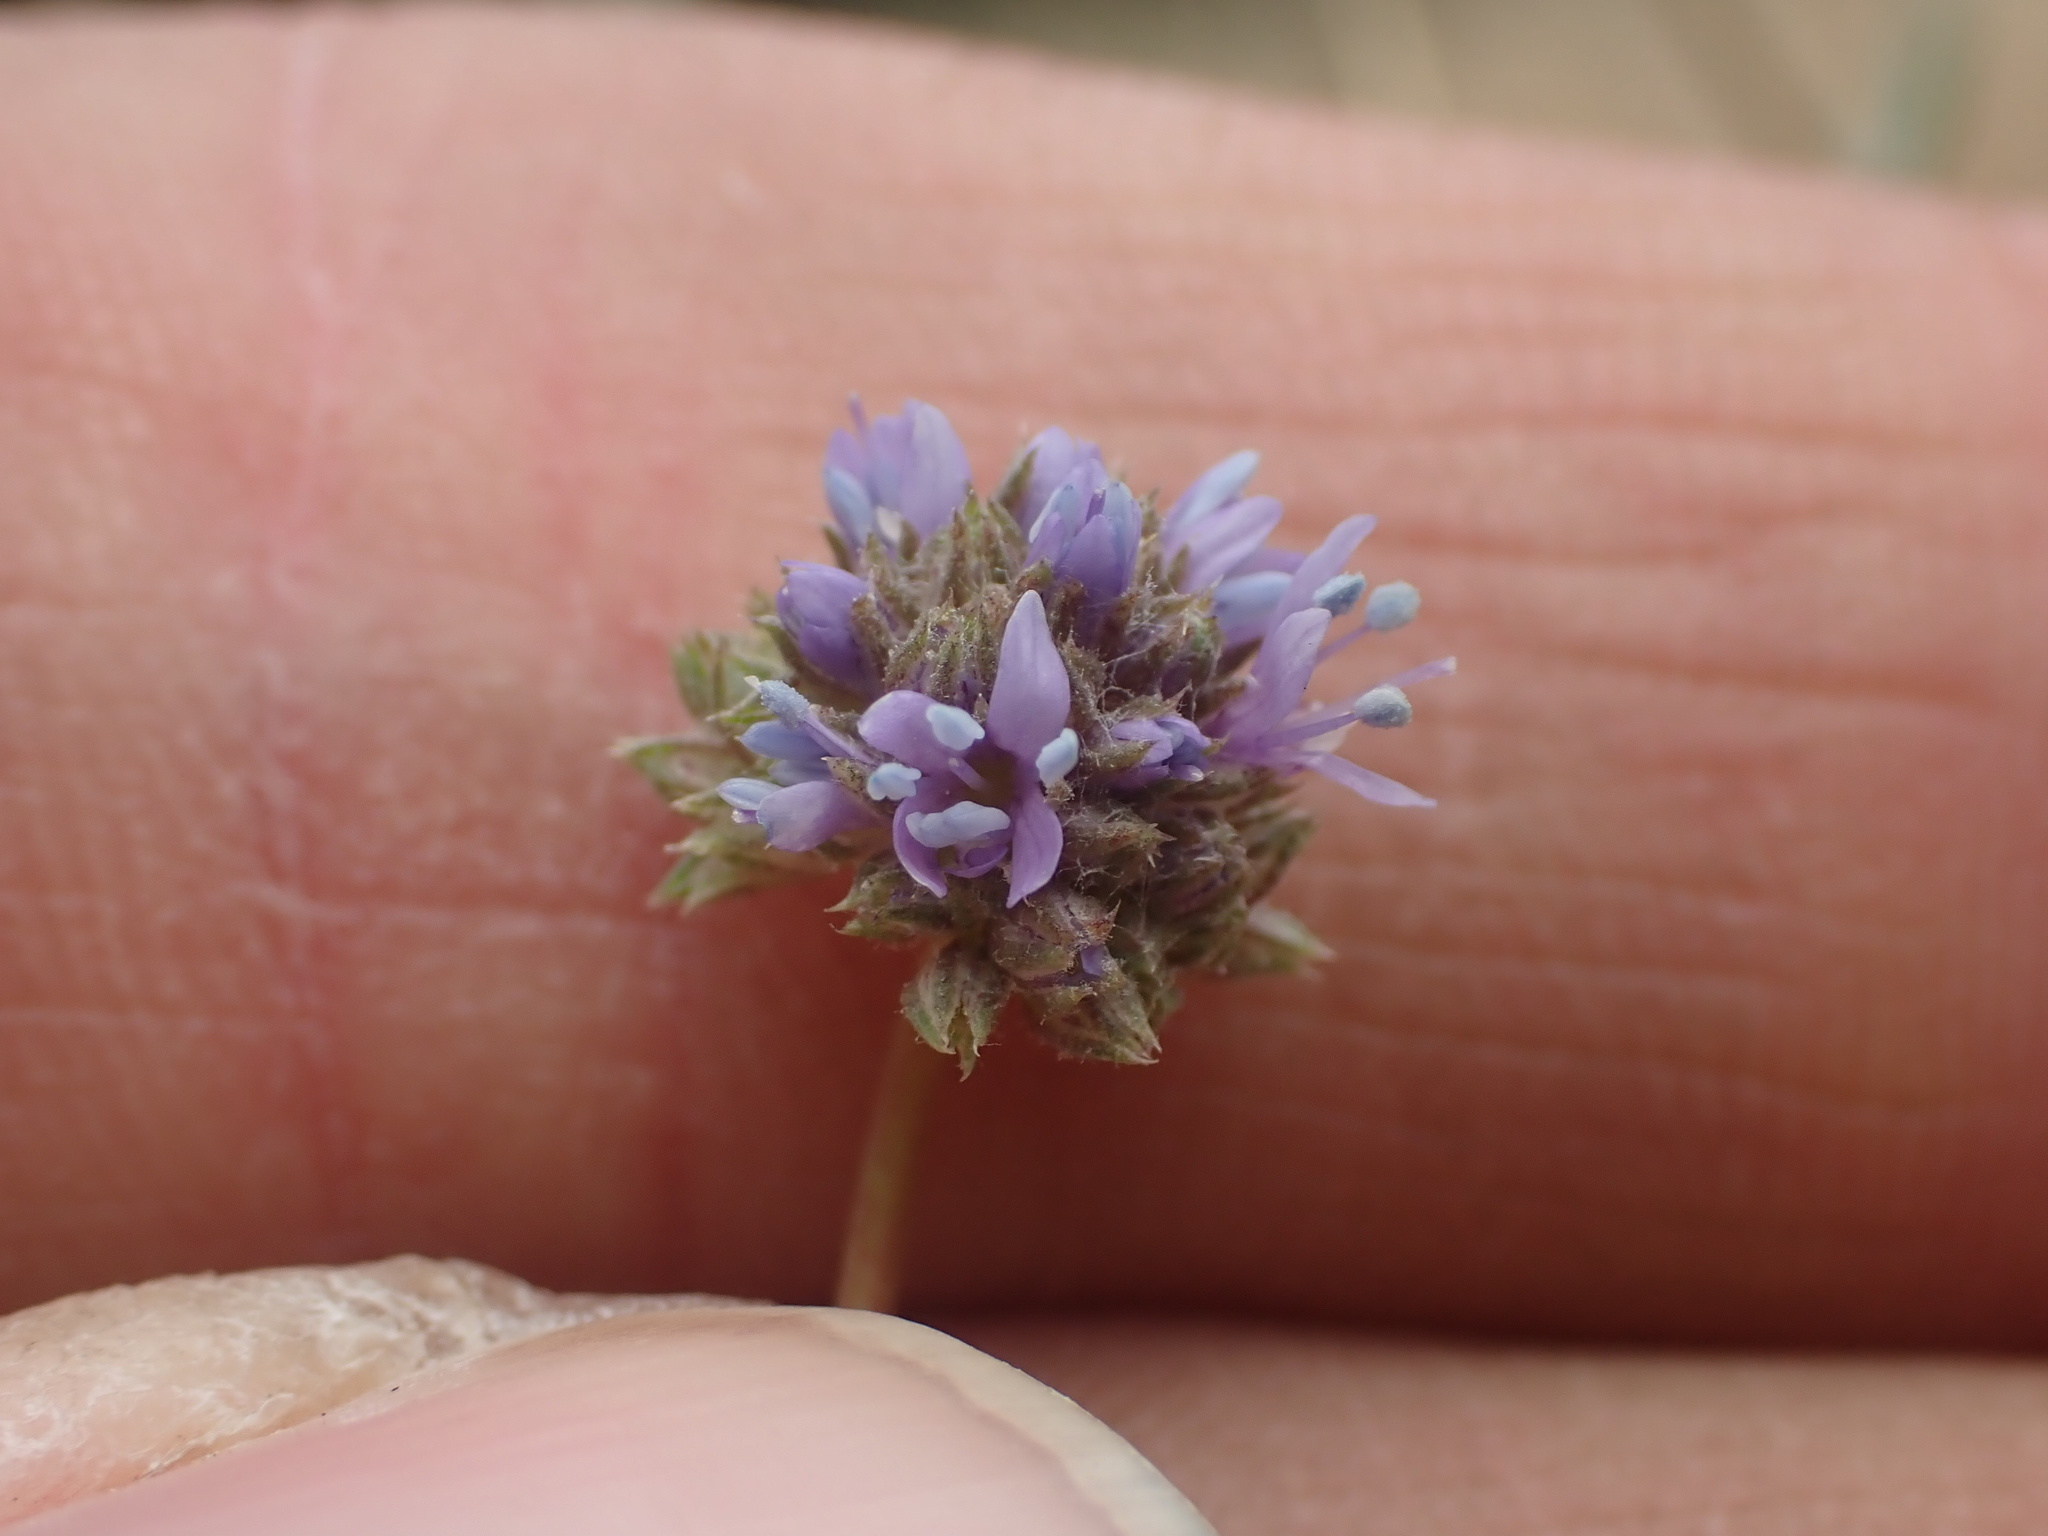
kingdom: Plantae
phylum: Tracheophyta
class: Magnoliopsida
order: Ericales
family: Polemoniaceae
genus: Gilia
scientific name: Gilia capitata
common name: Bluehead gilia
